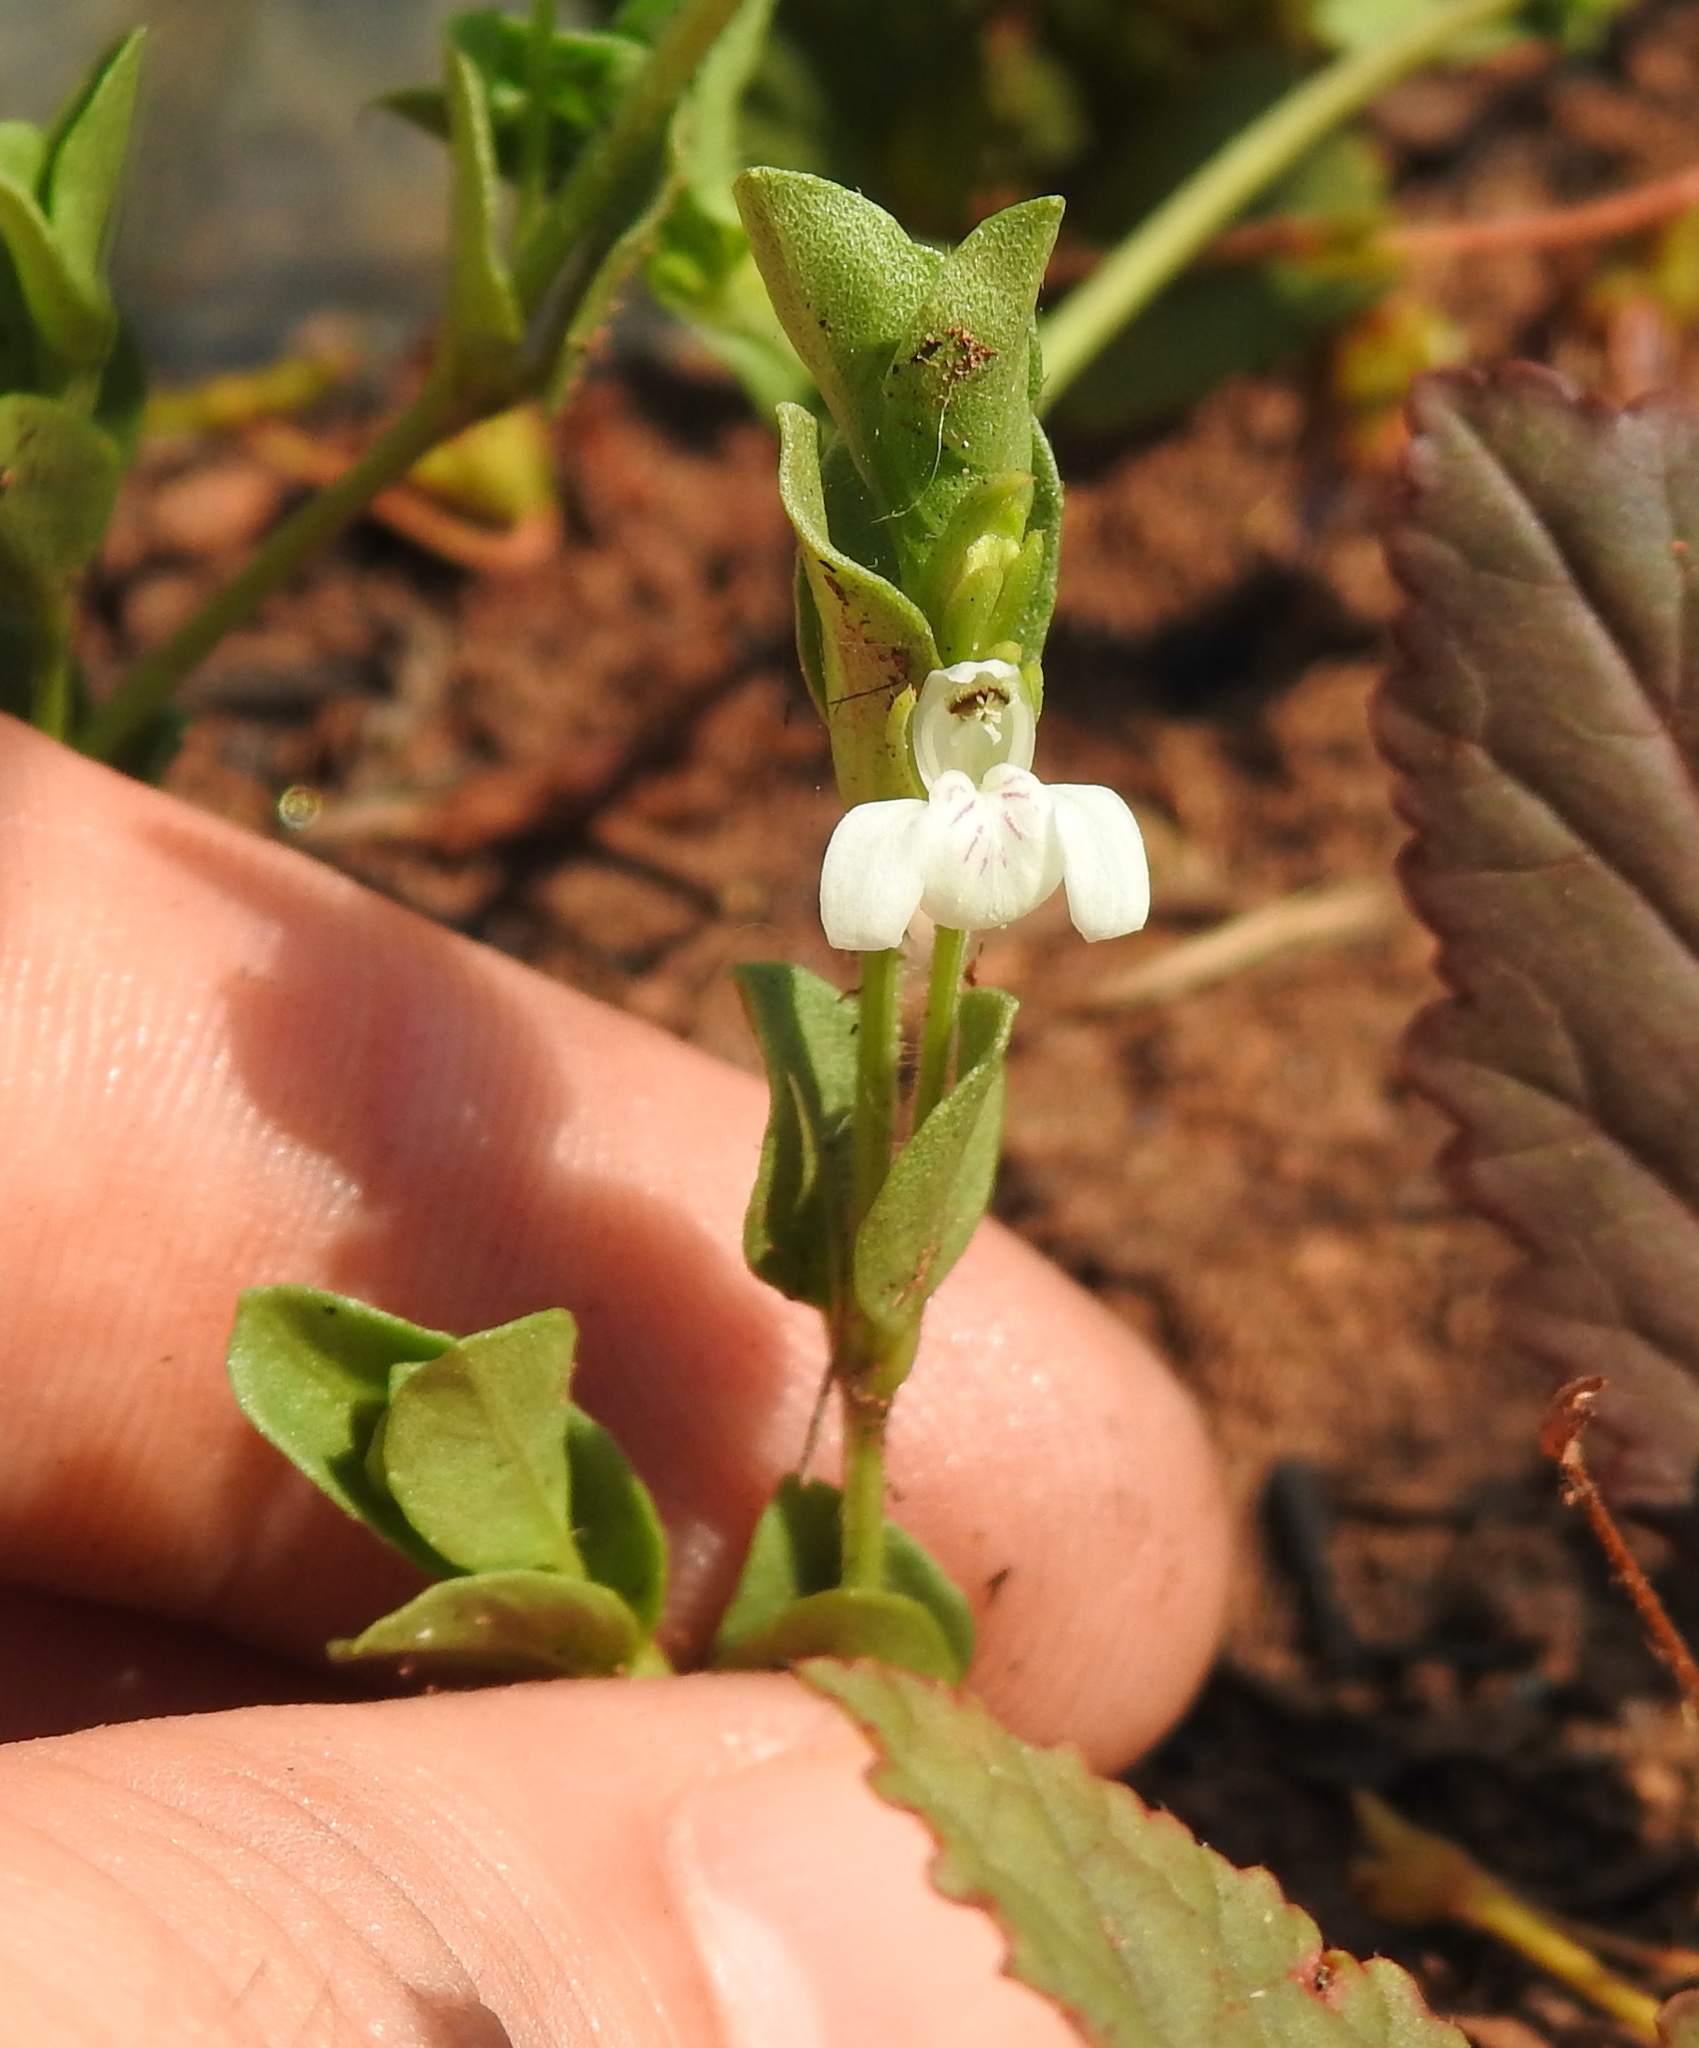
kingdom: Plantae
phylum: Tracheophyta
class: Magnoliopsida
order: Lamiales
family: Acanthaceae
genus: Justicia
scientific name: Justicia anagalloides
